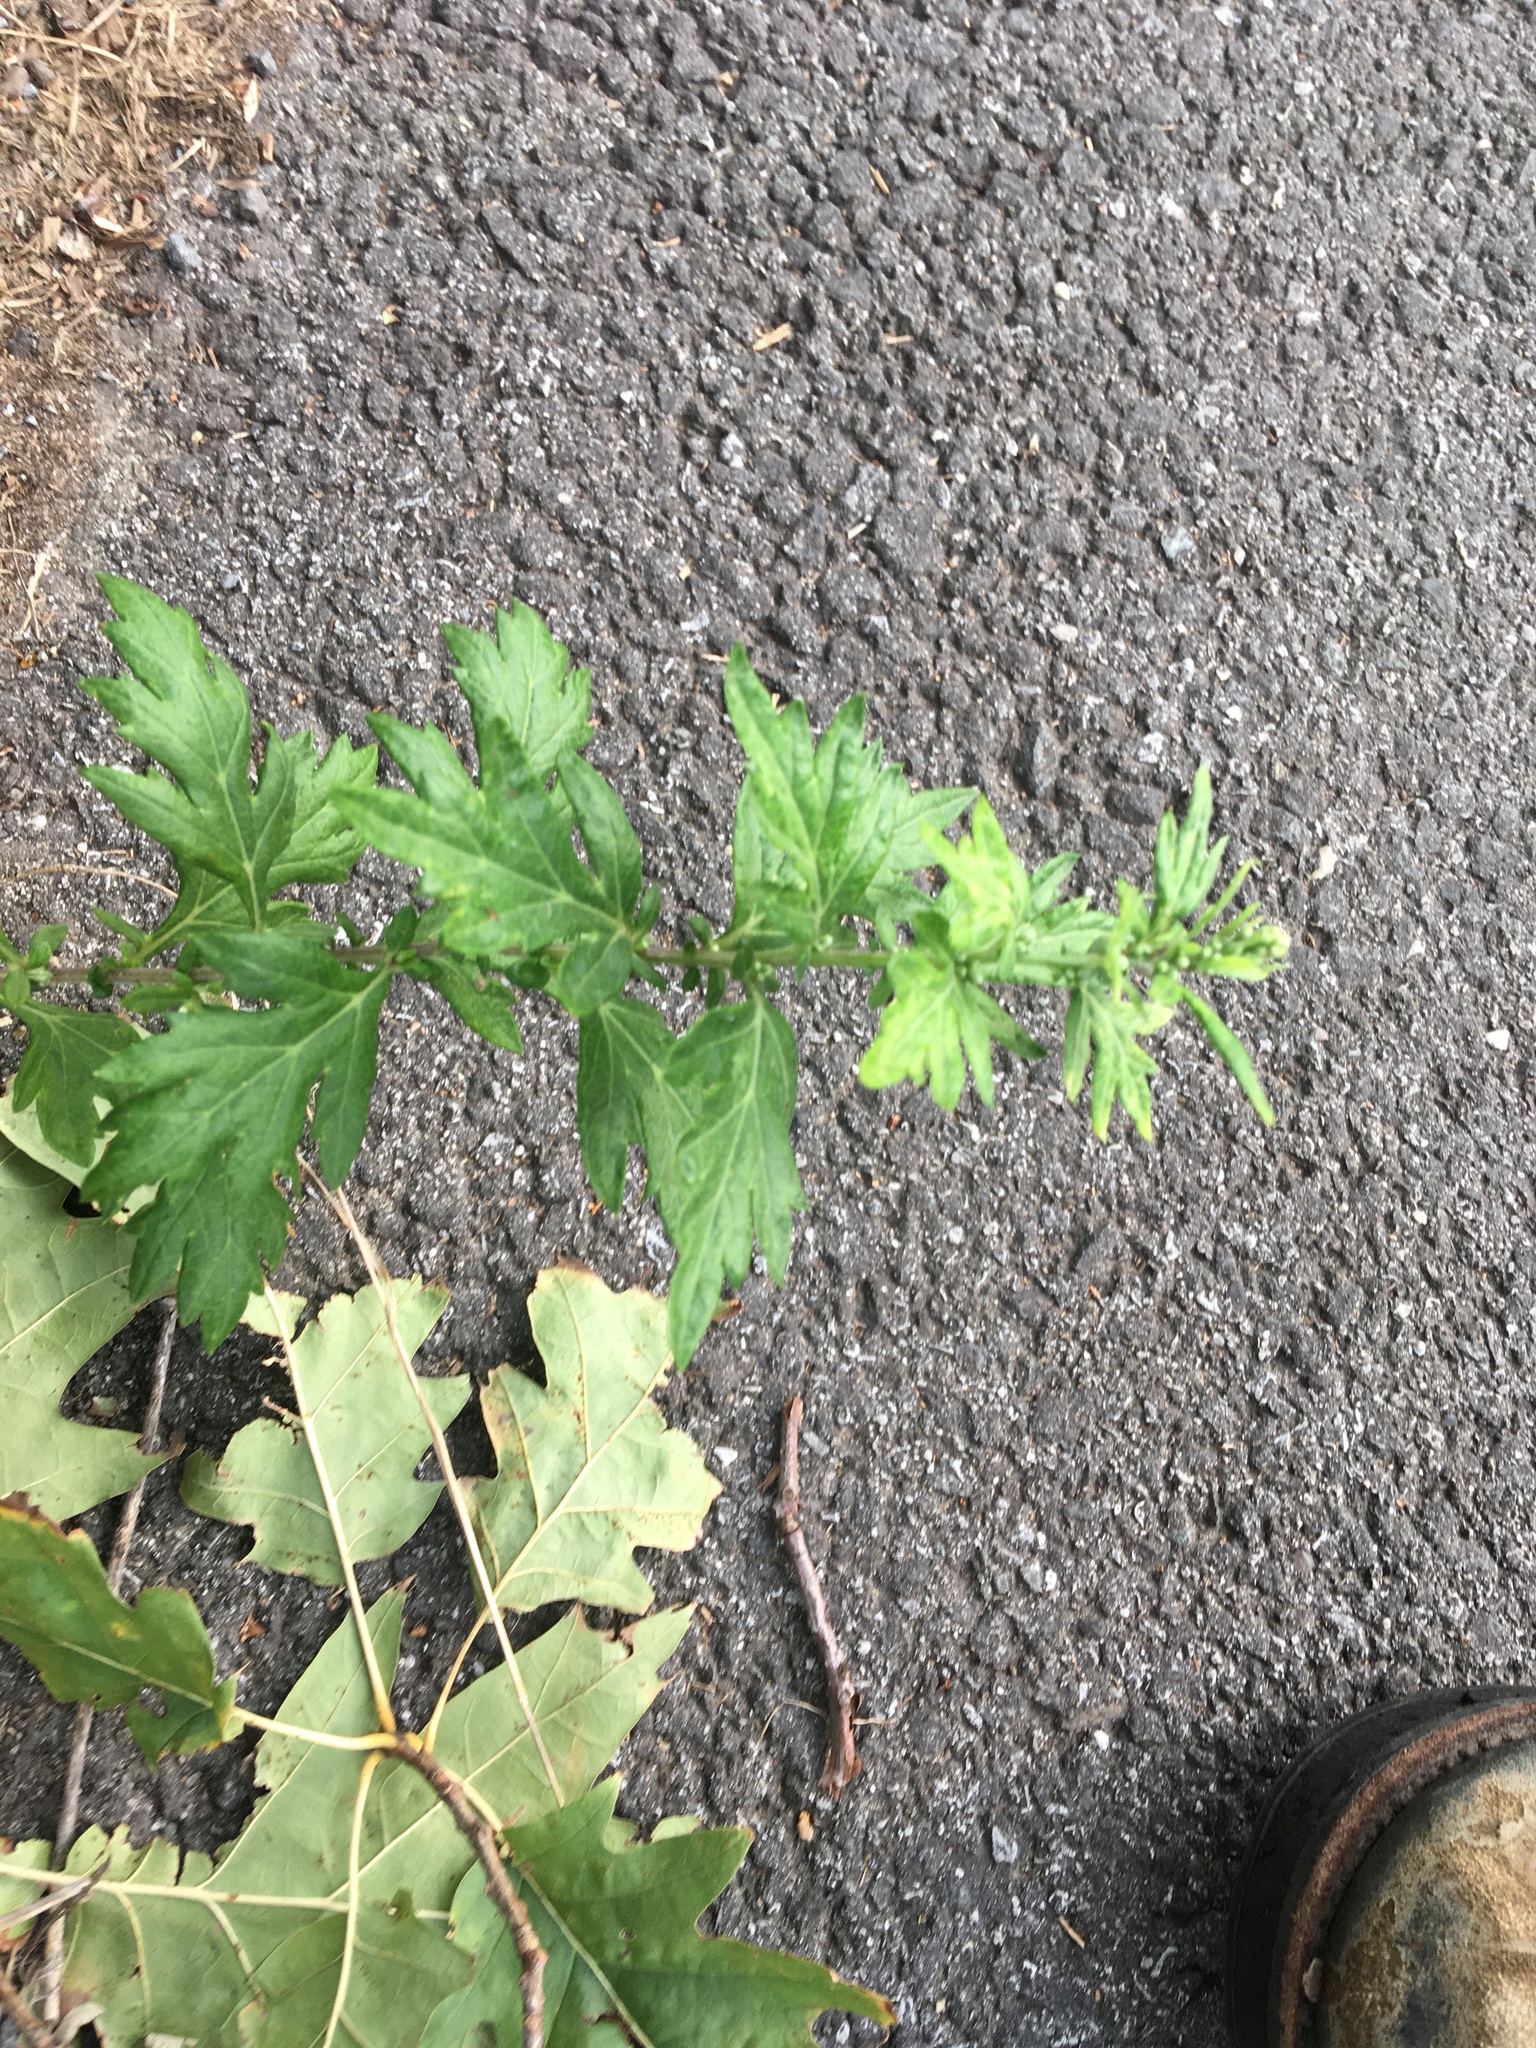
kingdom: Plantae
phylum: Tracheophyta
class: Magnoliopsida
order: Asterales
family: Asteraceae
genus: Artemisia
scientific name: Artemisia vulgaris
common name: Mugwort
